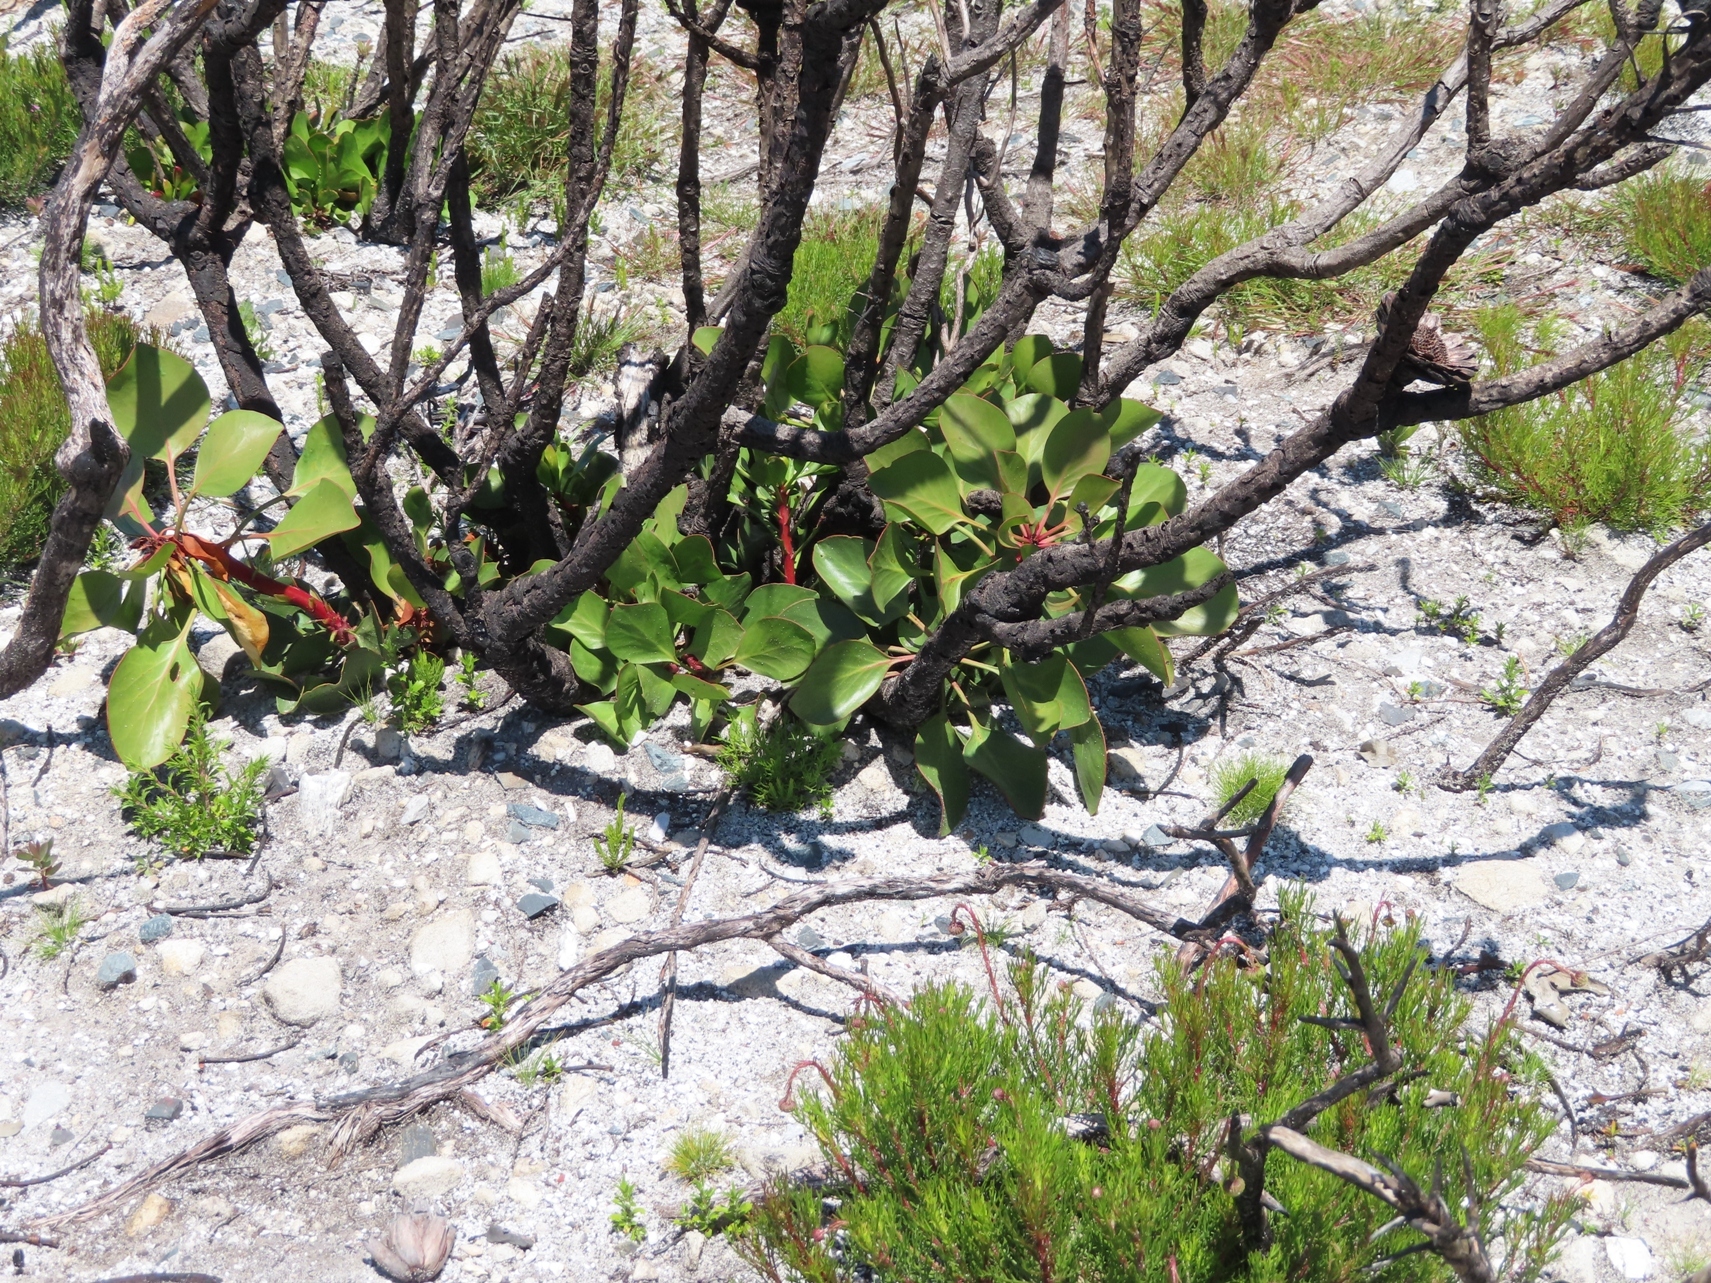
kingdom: Plantae
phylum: Tracheophyta
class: Magnoliopsida
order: Proteales
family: Proteaceae
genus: Protea
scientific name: Protea cynaroides
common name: King protea
